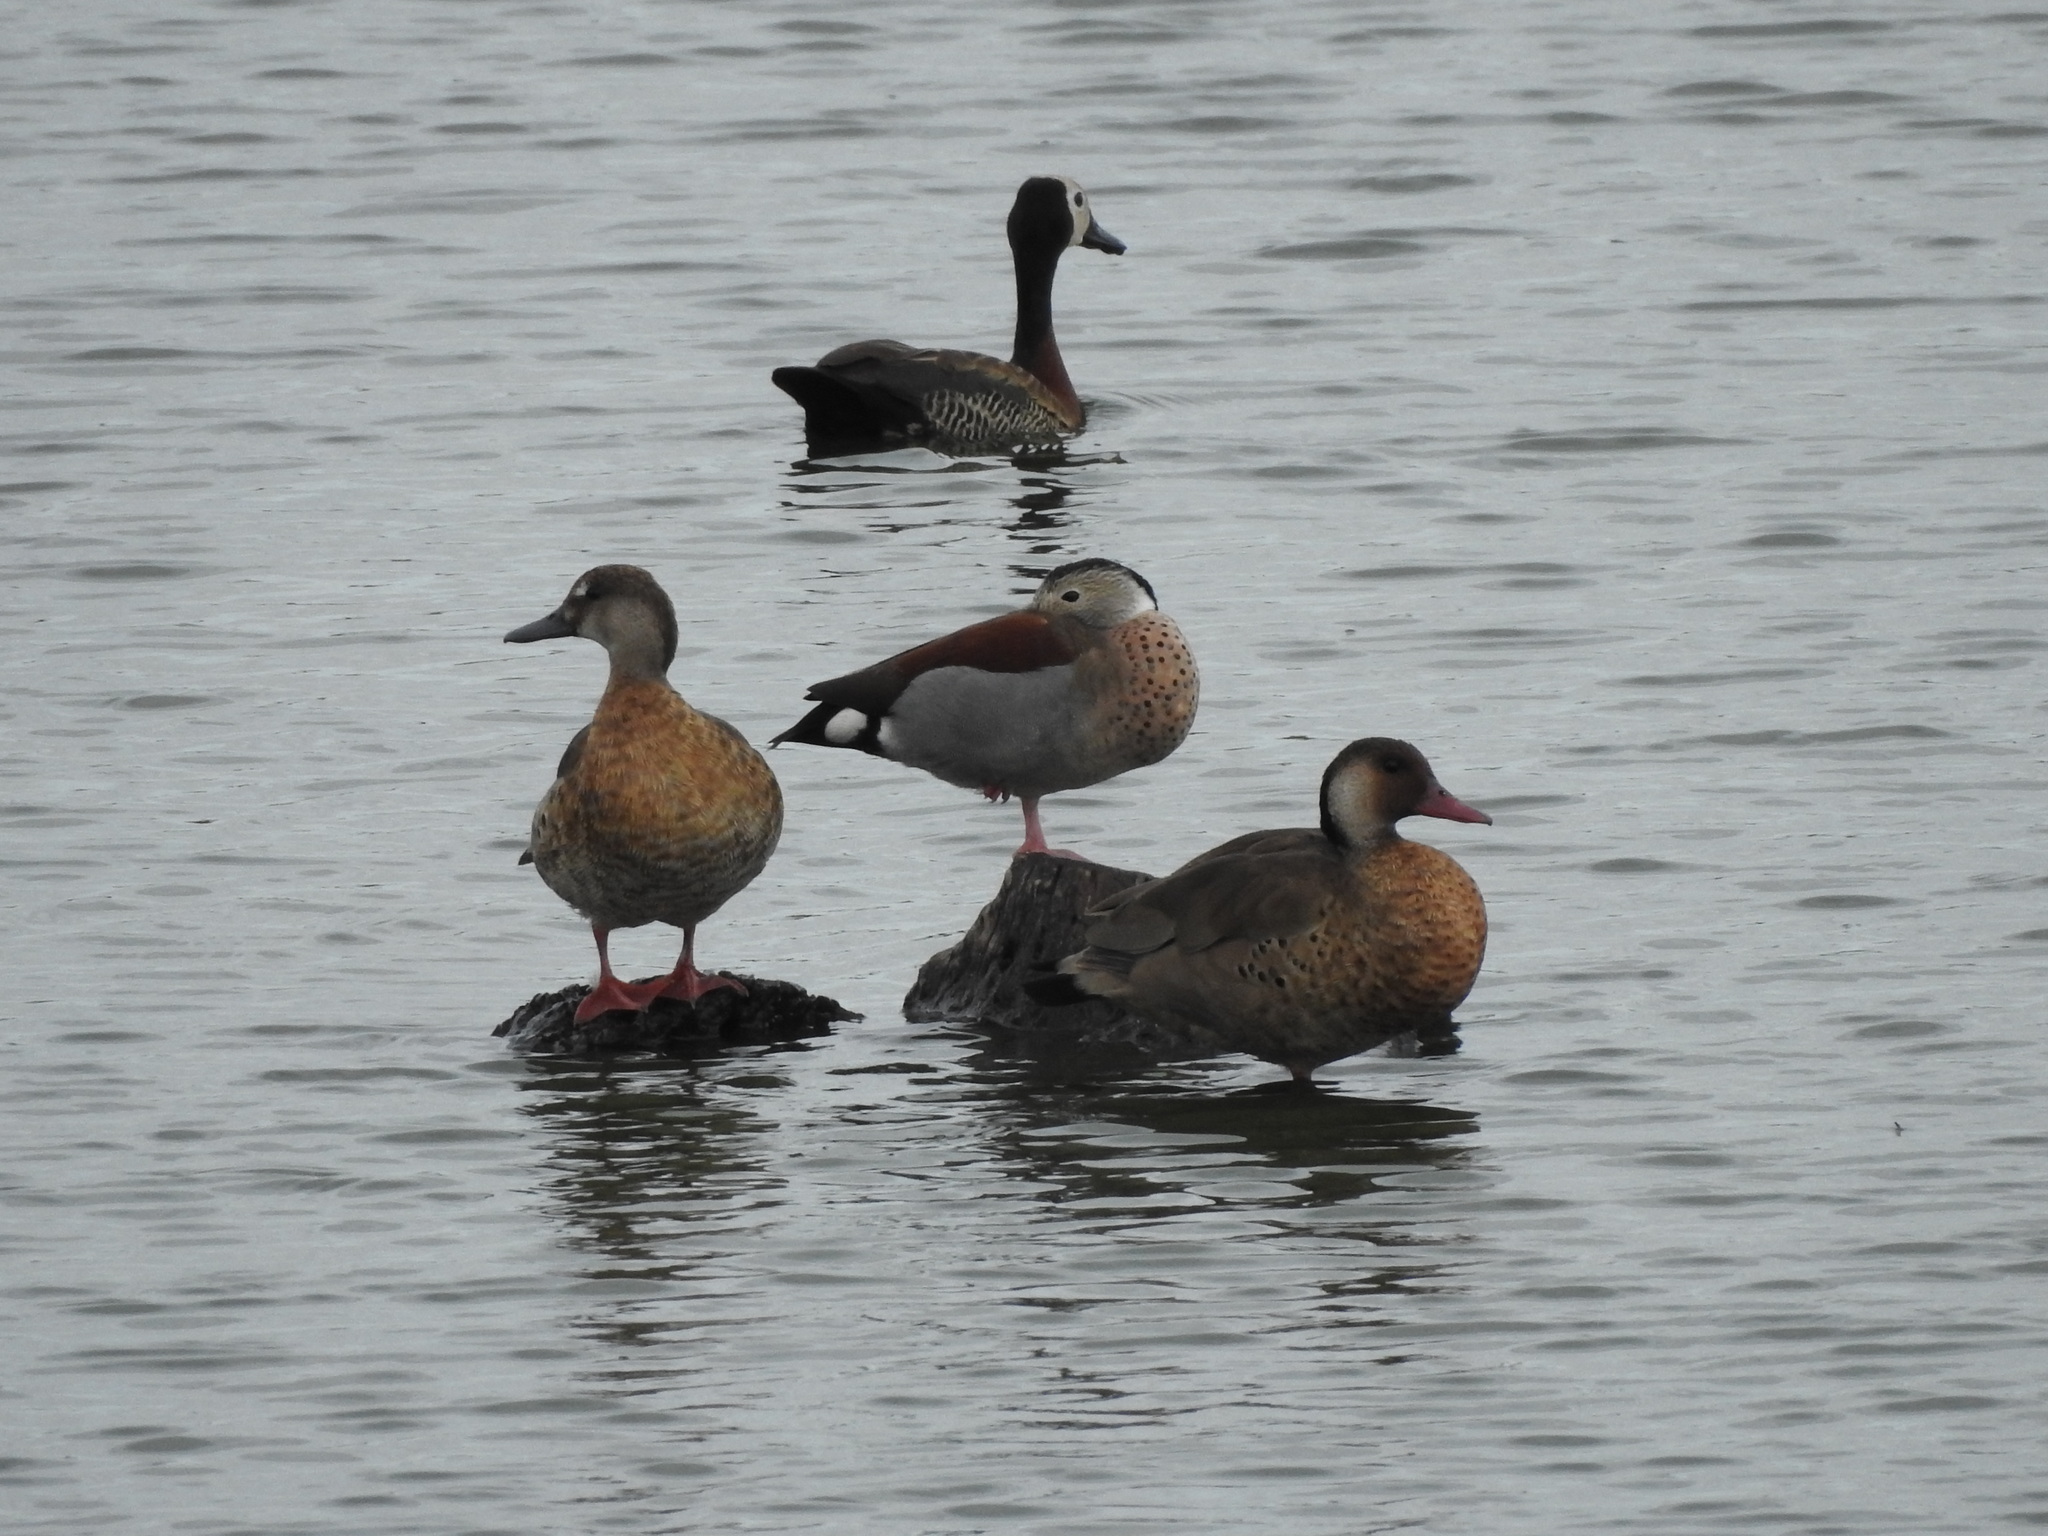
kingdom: Animalia
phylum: Chordata
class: Aves
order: Anseriformes
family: Anatidae
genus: Amazonetta
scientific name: Amazonetta brasiliensis
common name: Brazilian teal
